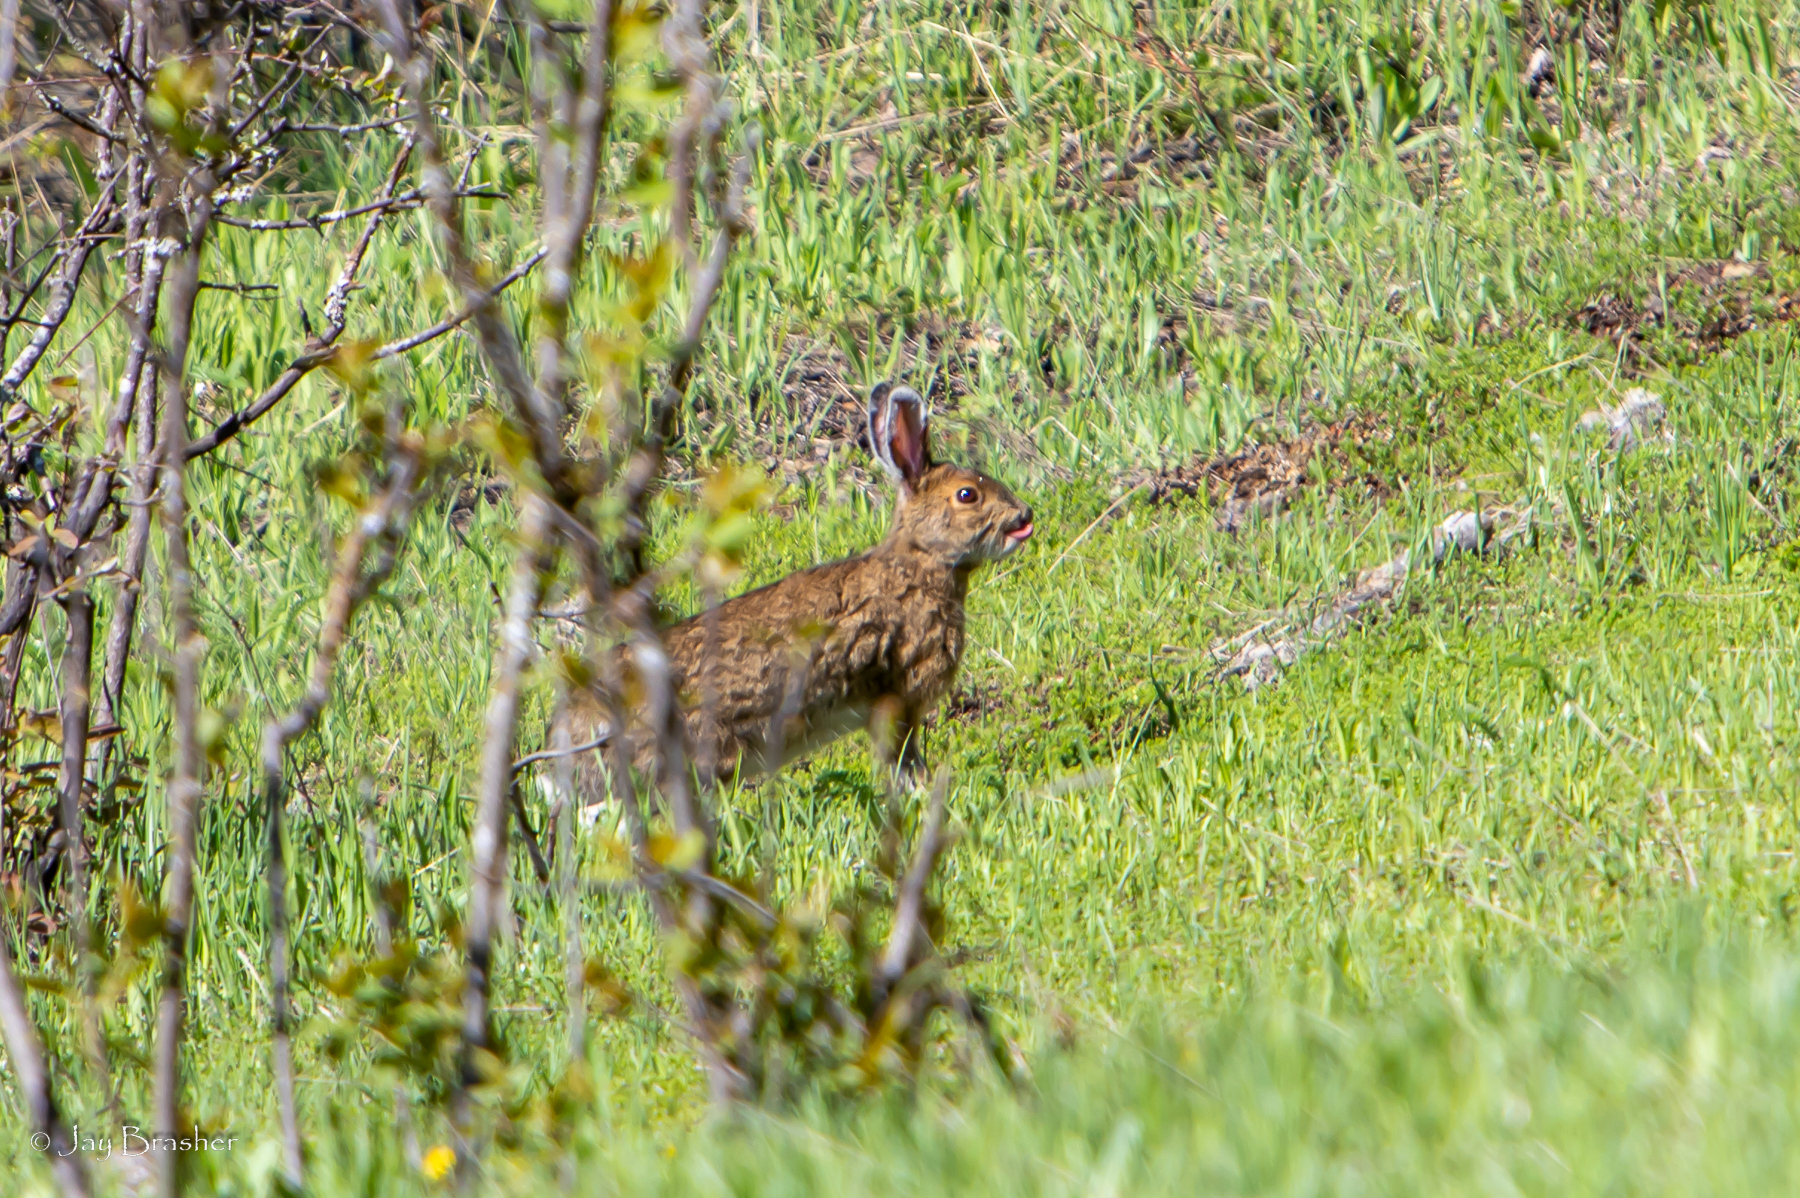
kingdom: Animalia
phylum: Chordata
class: Mammalia
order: Lagomorpha
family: Leporidae
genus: Lepus
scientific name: Lepus americanus
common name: Snowshoe hare
